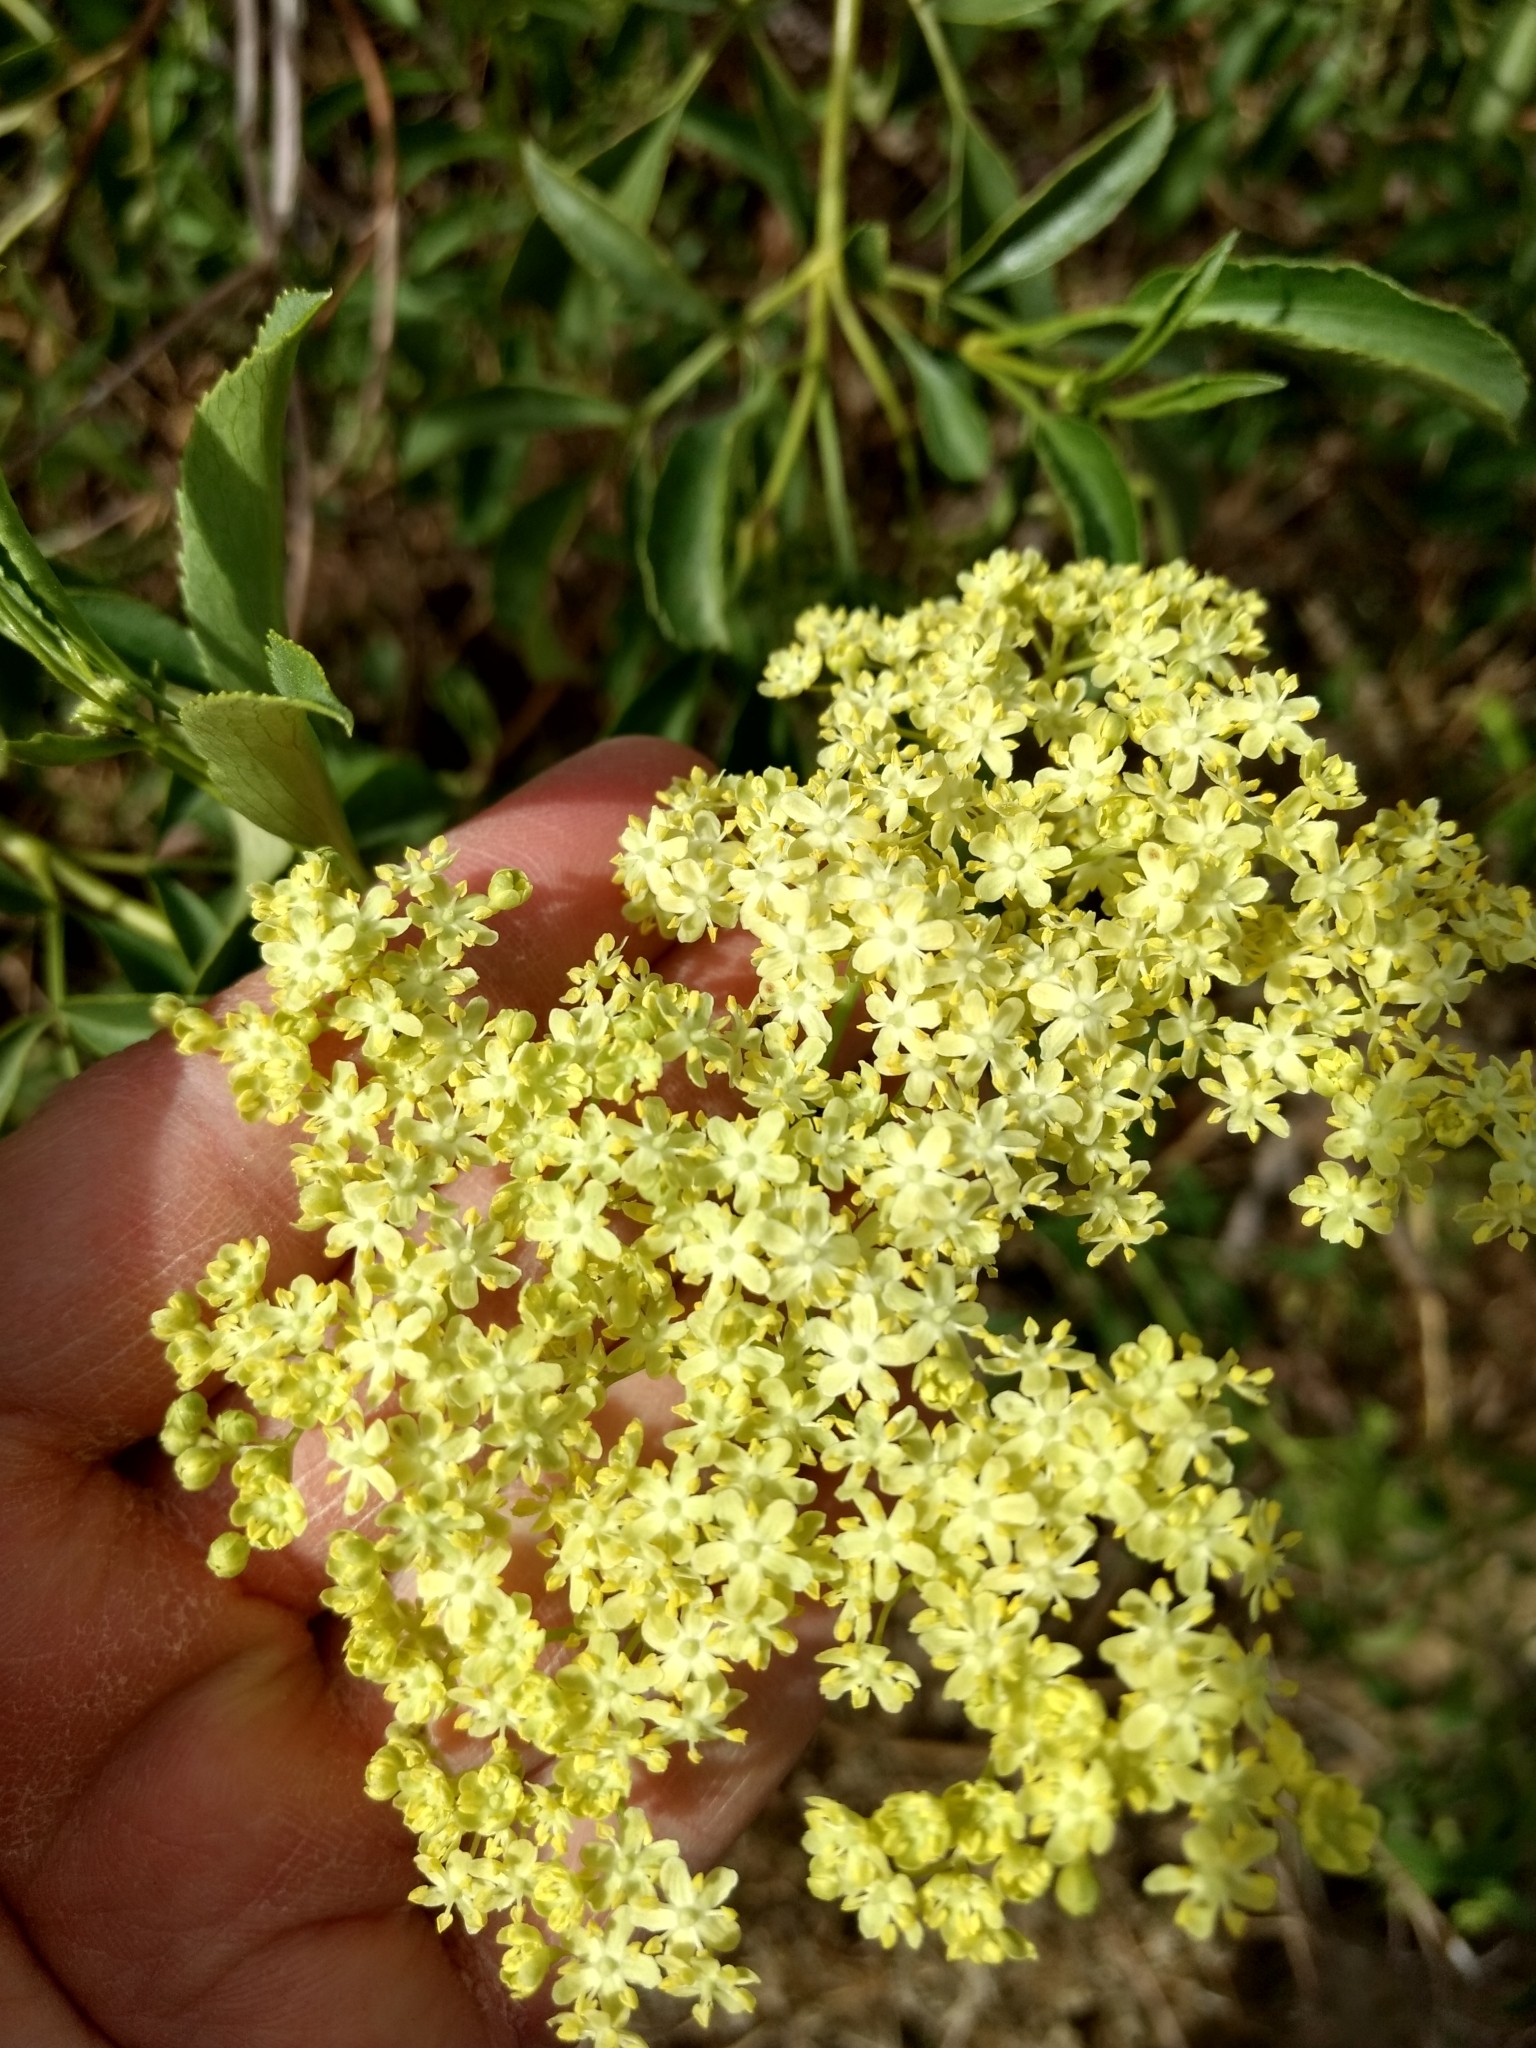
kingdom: Plantae
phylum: Tracheophyta
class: Magnoliopsida
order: Dipsacales
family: Viburnaceae
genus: Sambucus
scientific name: Sambucus cerulea
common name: Blue elder
